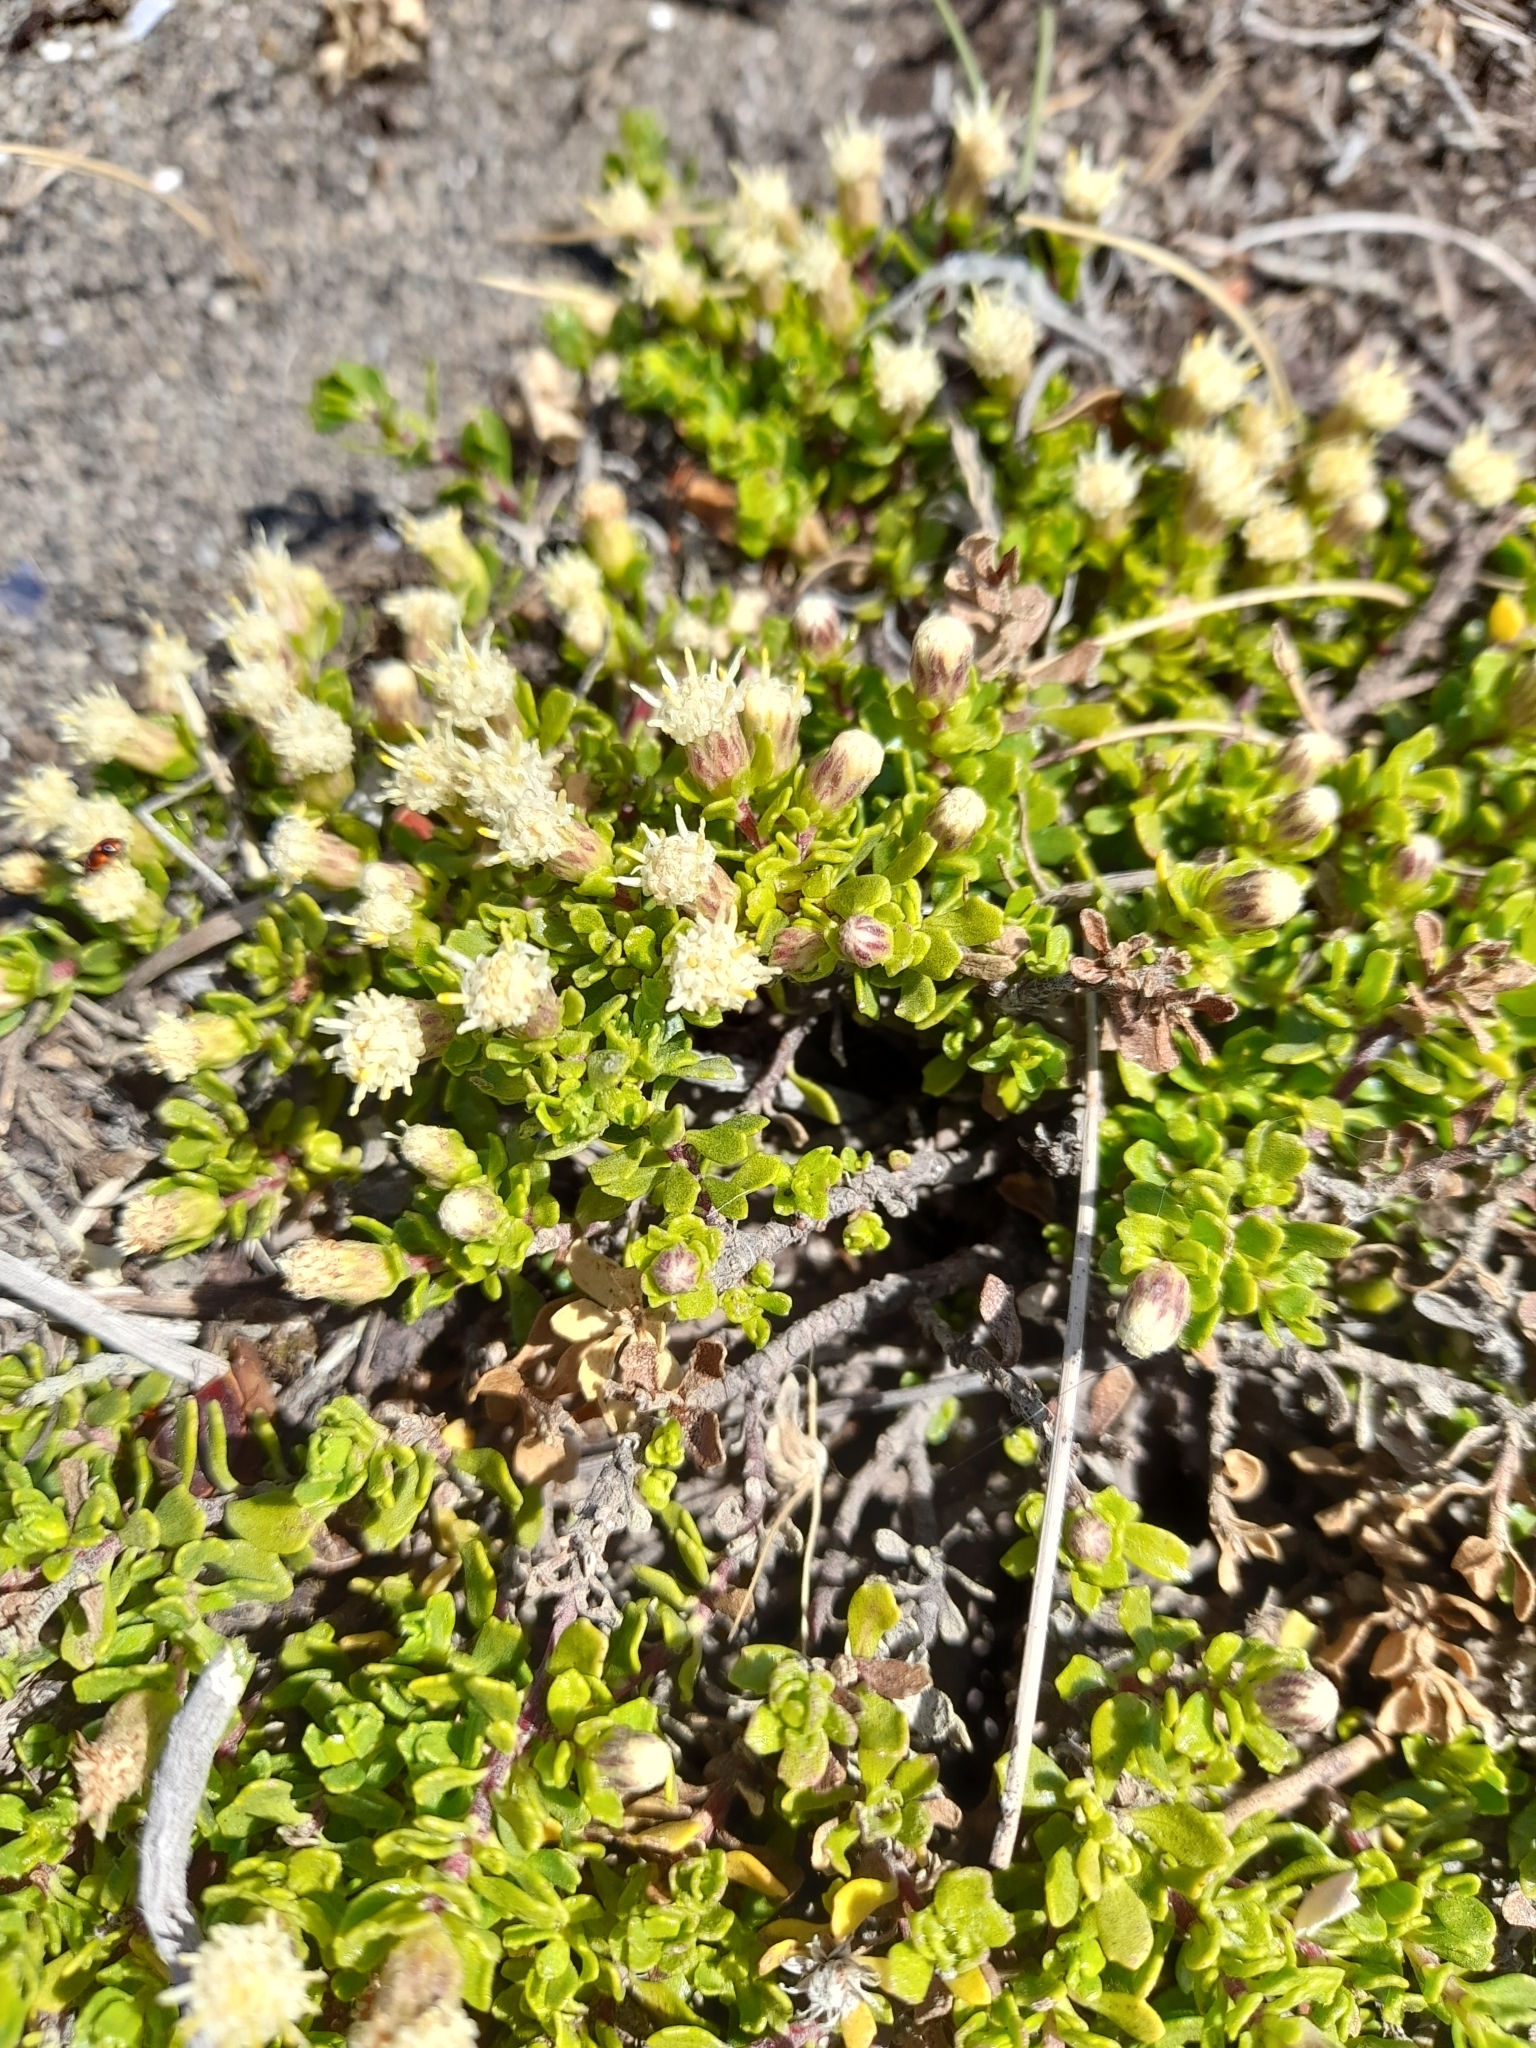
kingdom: Plantae
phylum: Tracheophyta
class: Magnoliopsida
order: Asterales
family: Asteraceae
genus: Baccharis
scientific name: Baccharis magellanica
